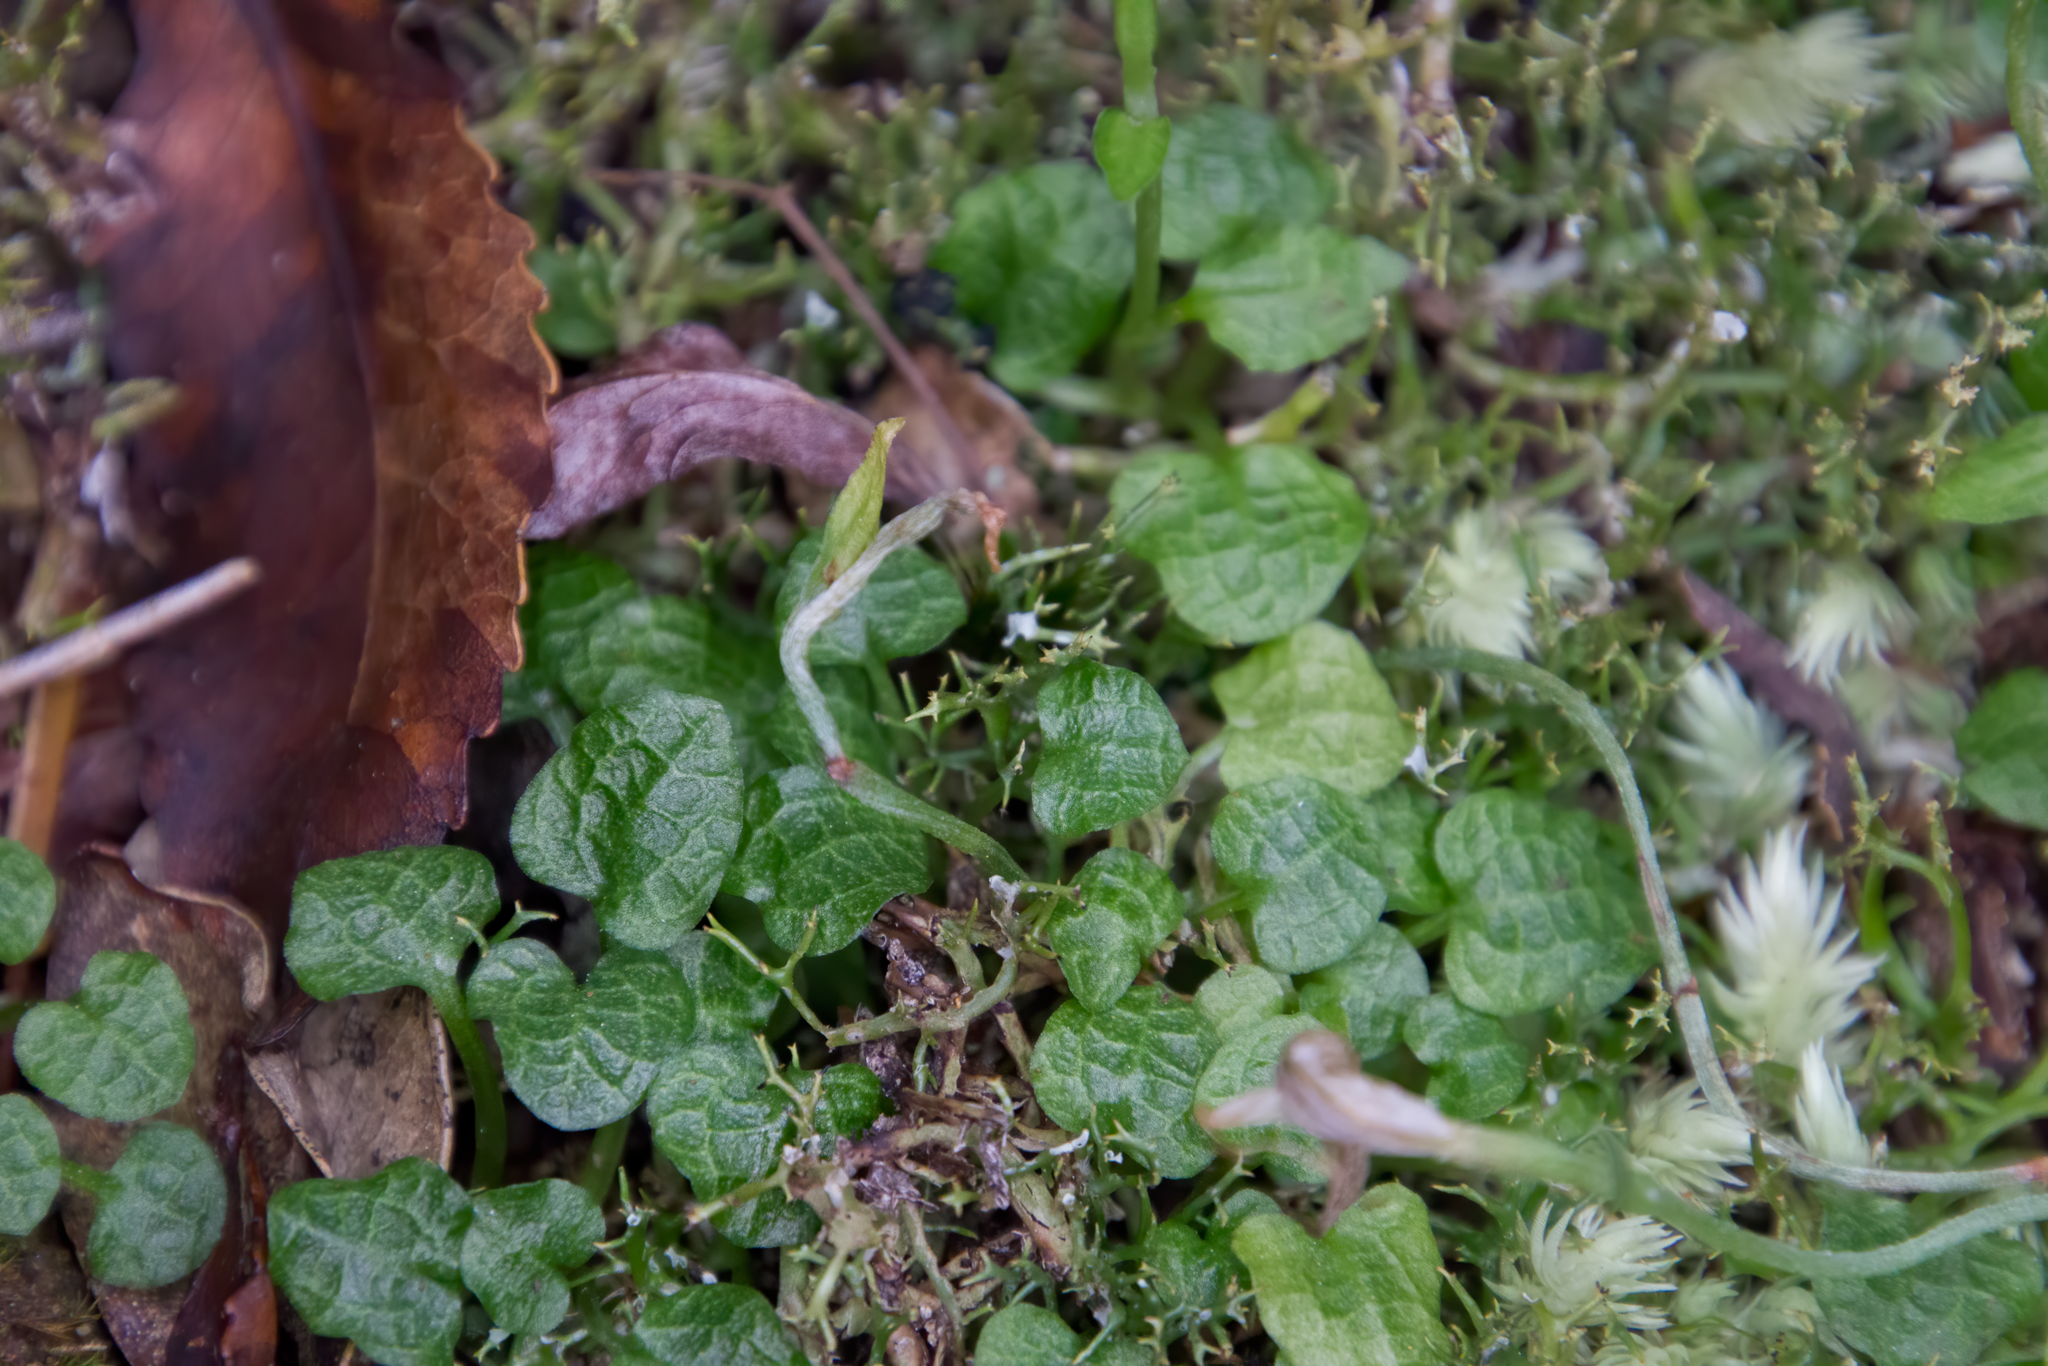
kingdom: Plantae
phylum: Tracheophyta
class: Liliopsida
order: Asparagales
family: Orchidaceae
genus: Pterostylis
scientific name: Pterostylis trullifolia
